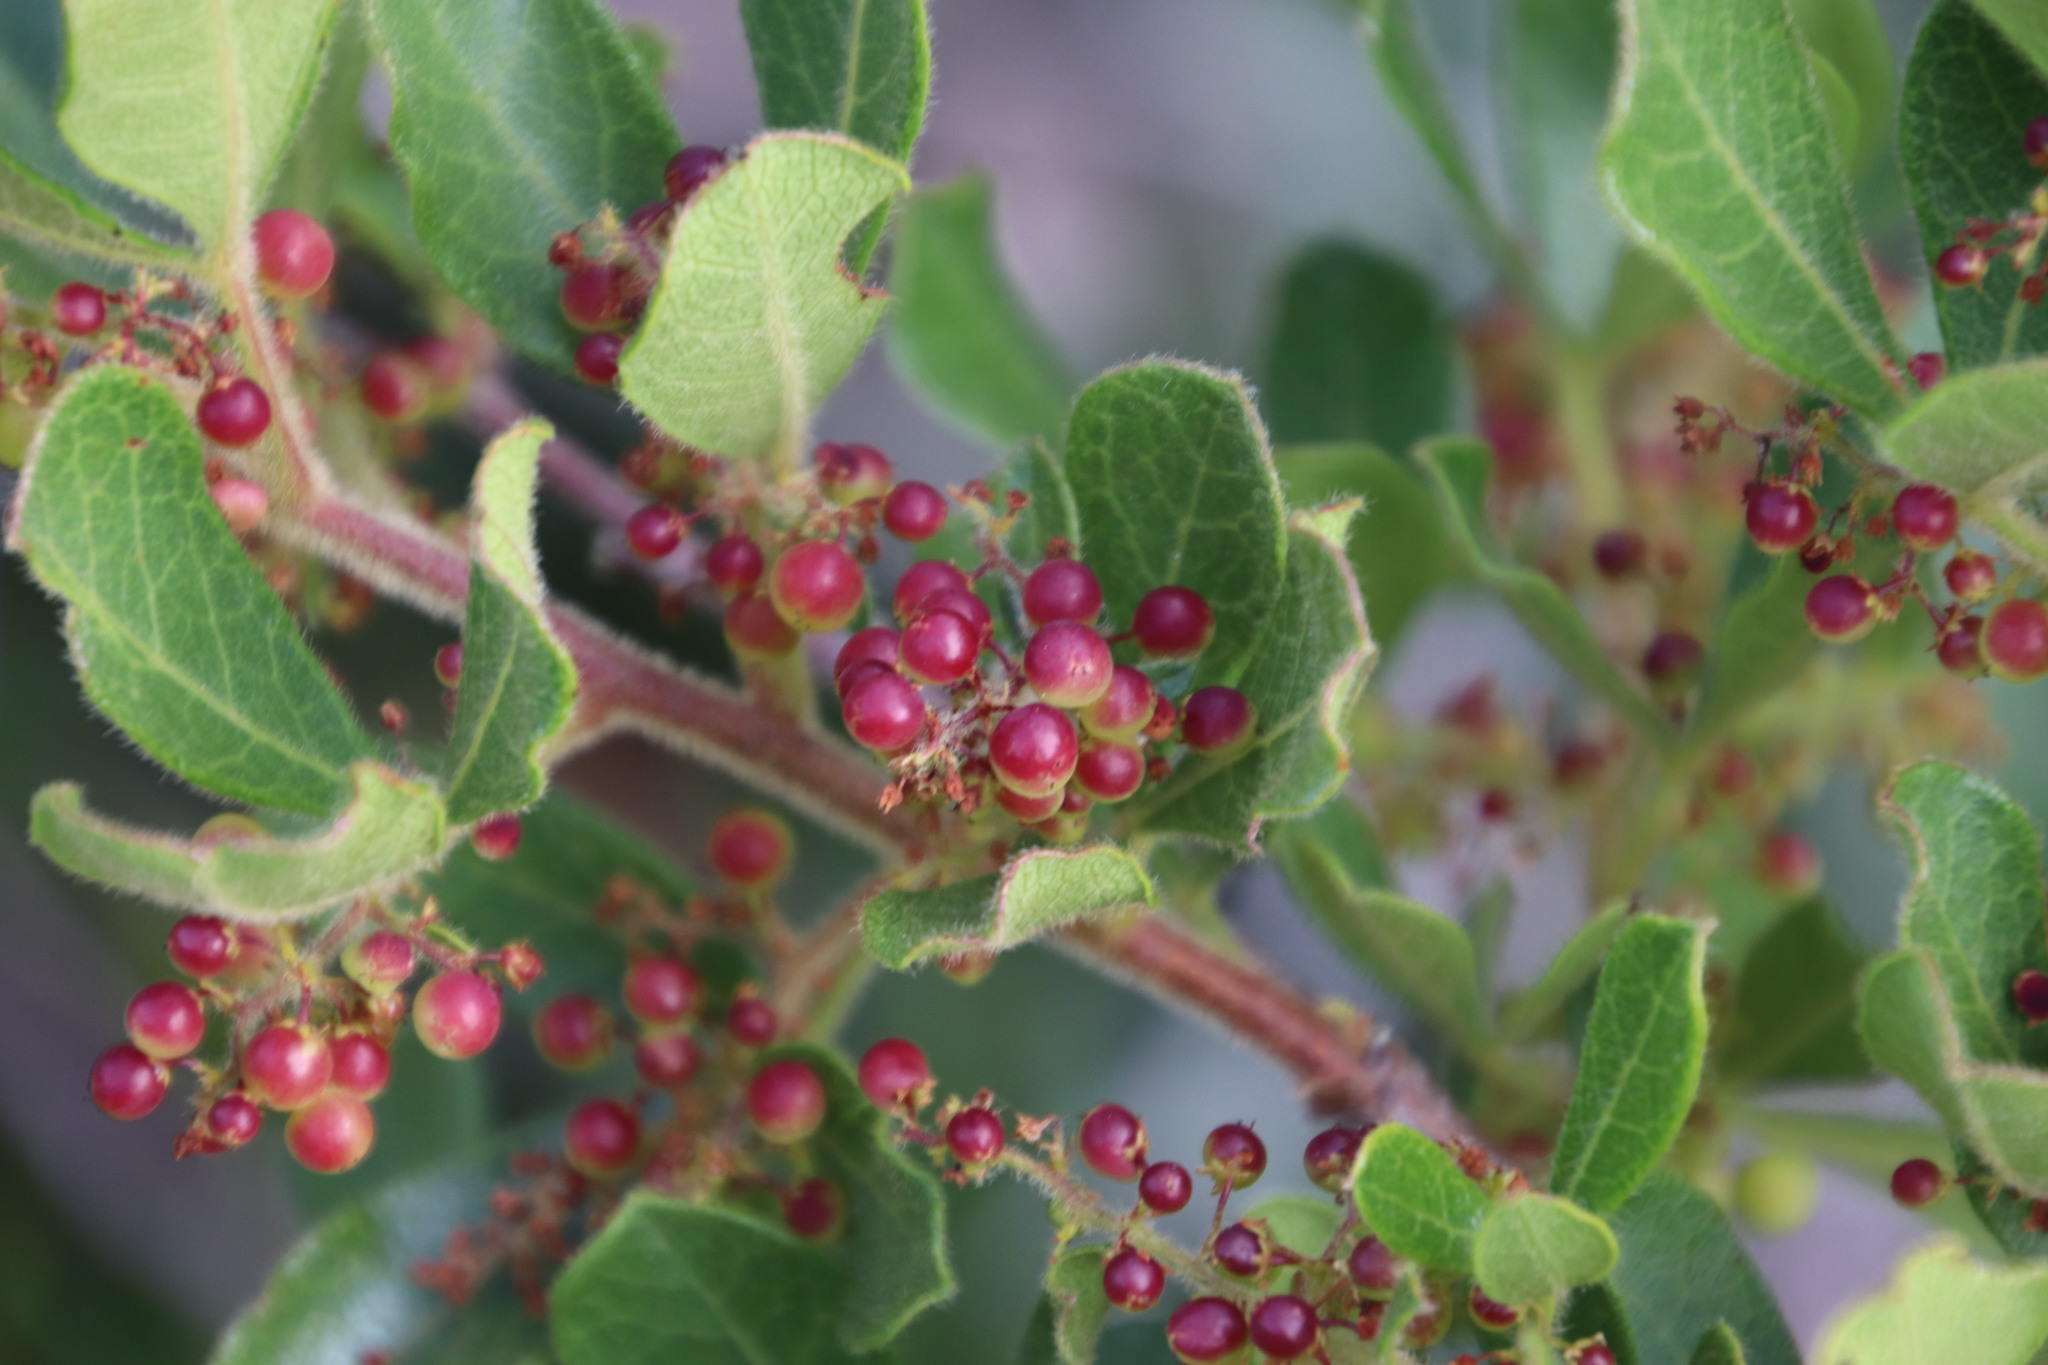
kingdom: Plantae
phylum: Tracheophyta
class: Magnoliopsida
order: Sapindales
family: Anacardiaceae
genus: Searsia
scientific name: Searsia laevigata
